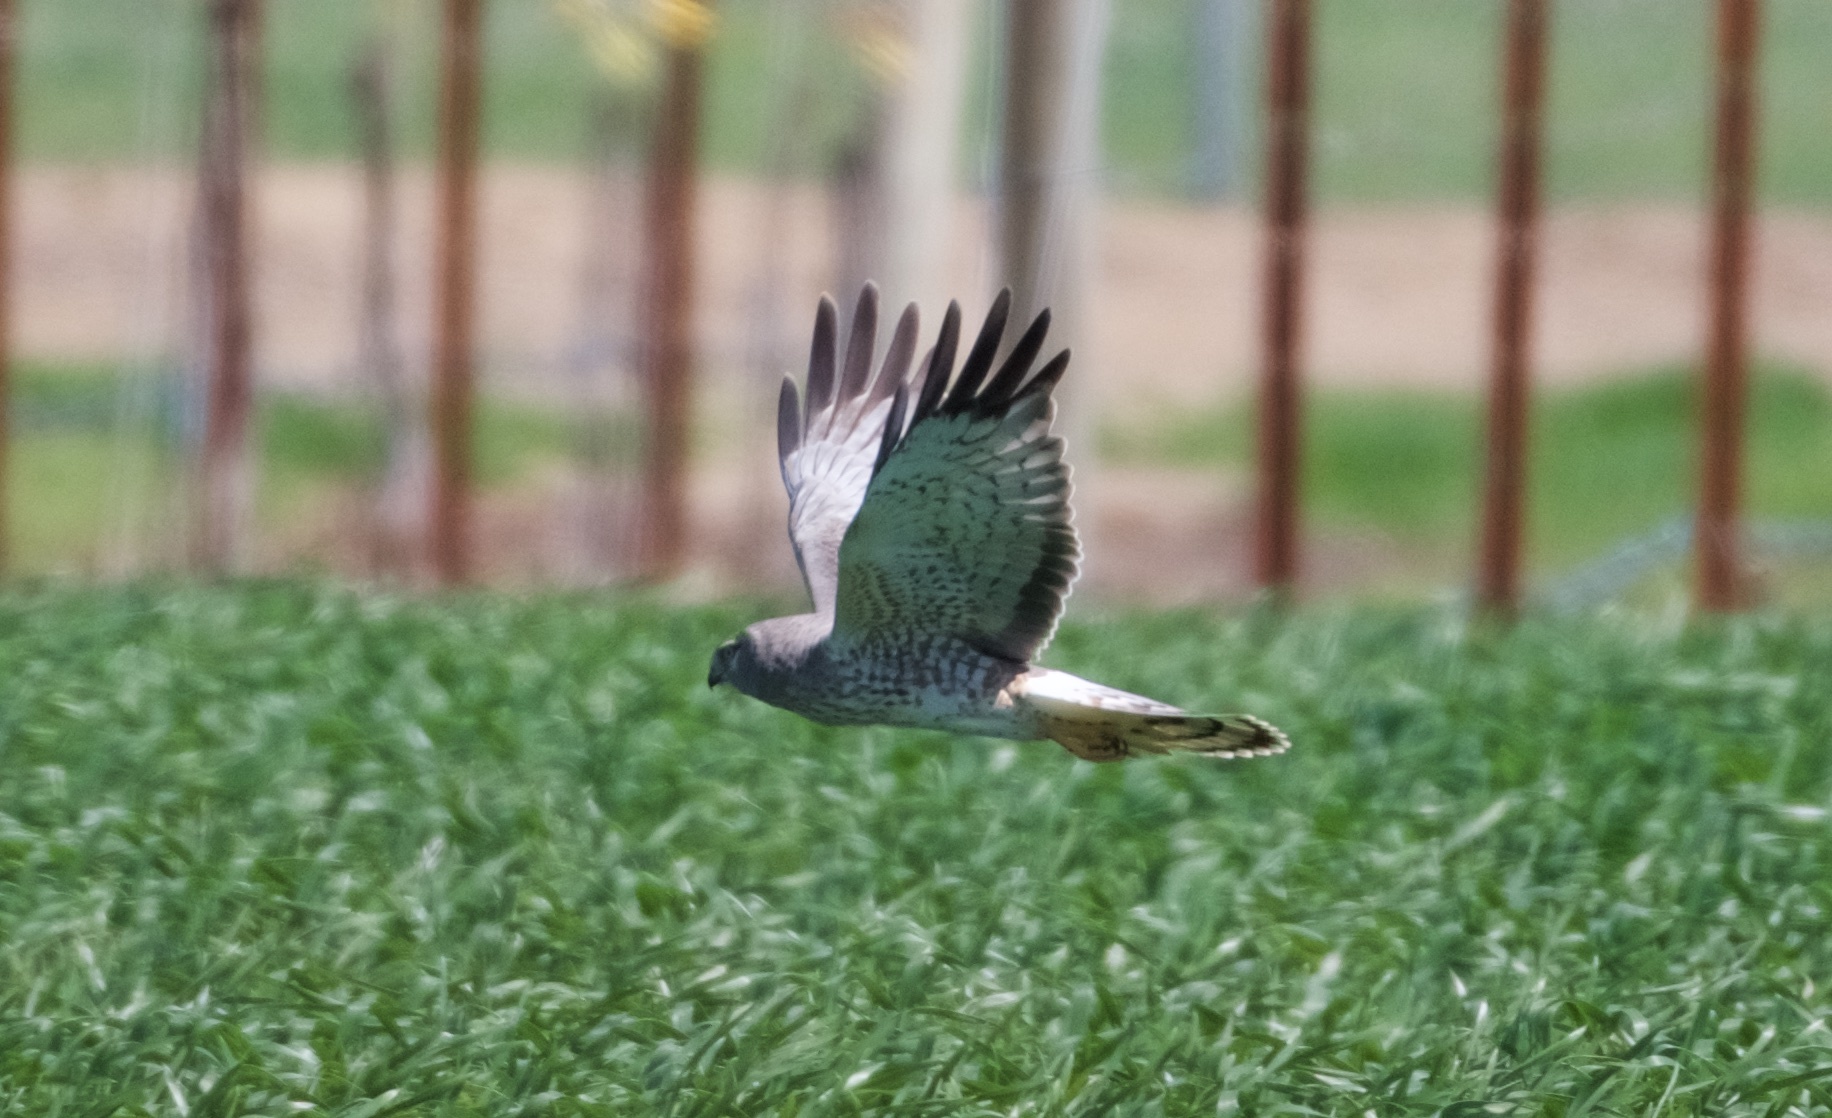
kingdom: Animalia
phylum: Chordata
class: Aves
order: Accipitriformes
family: Accipitridae
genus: Circus
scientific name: Circus cyaneus
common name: Hen harrier
